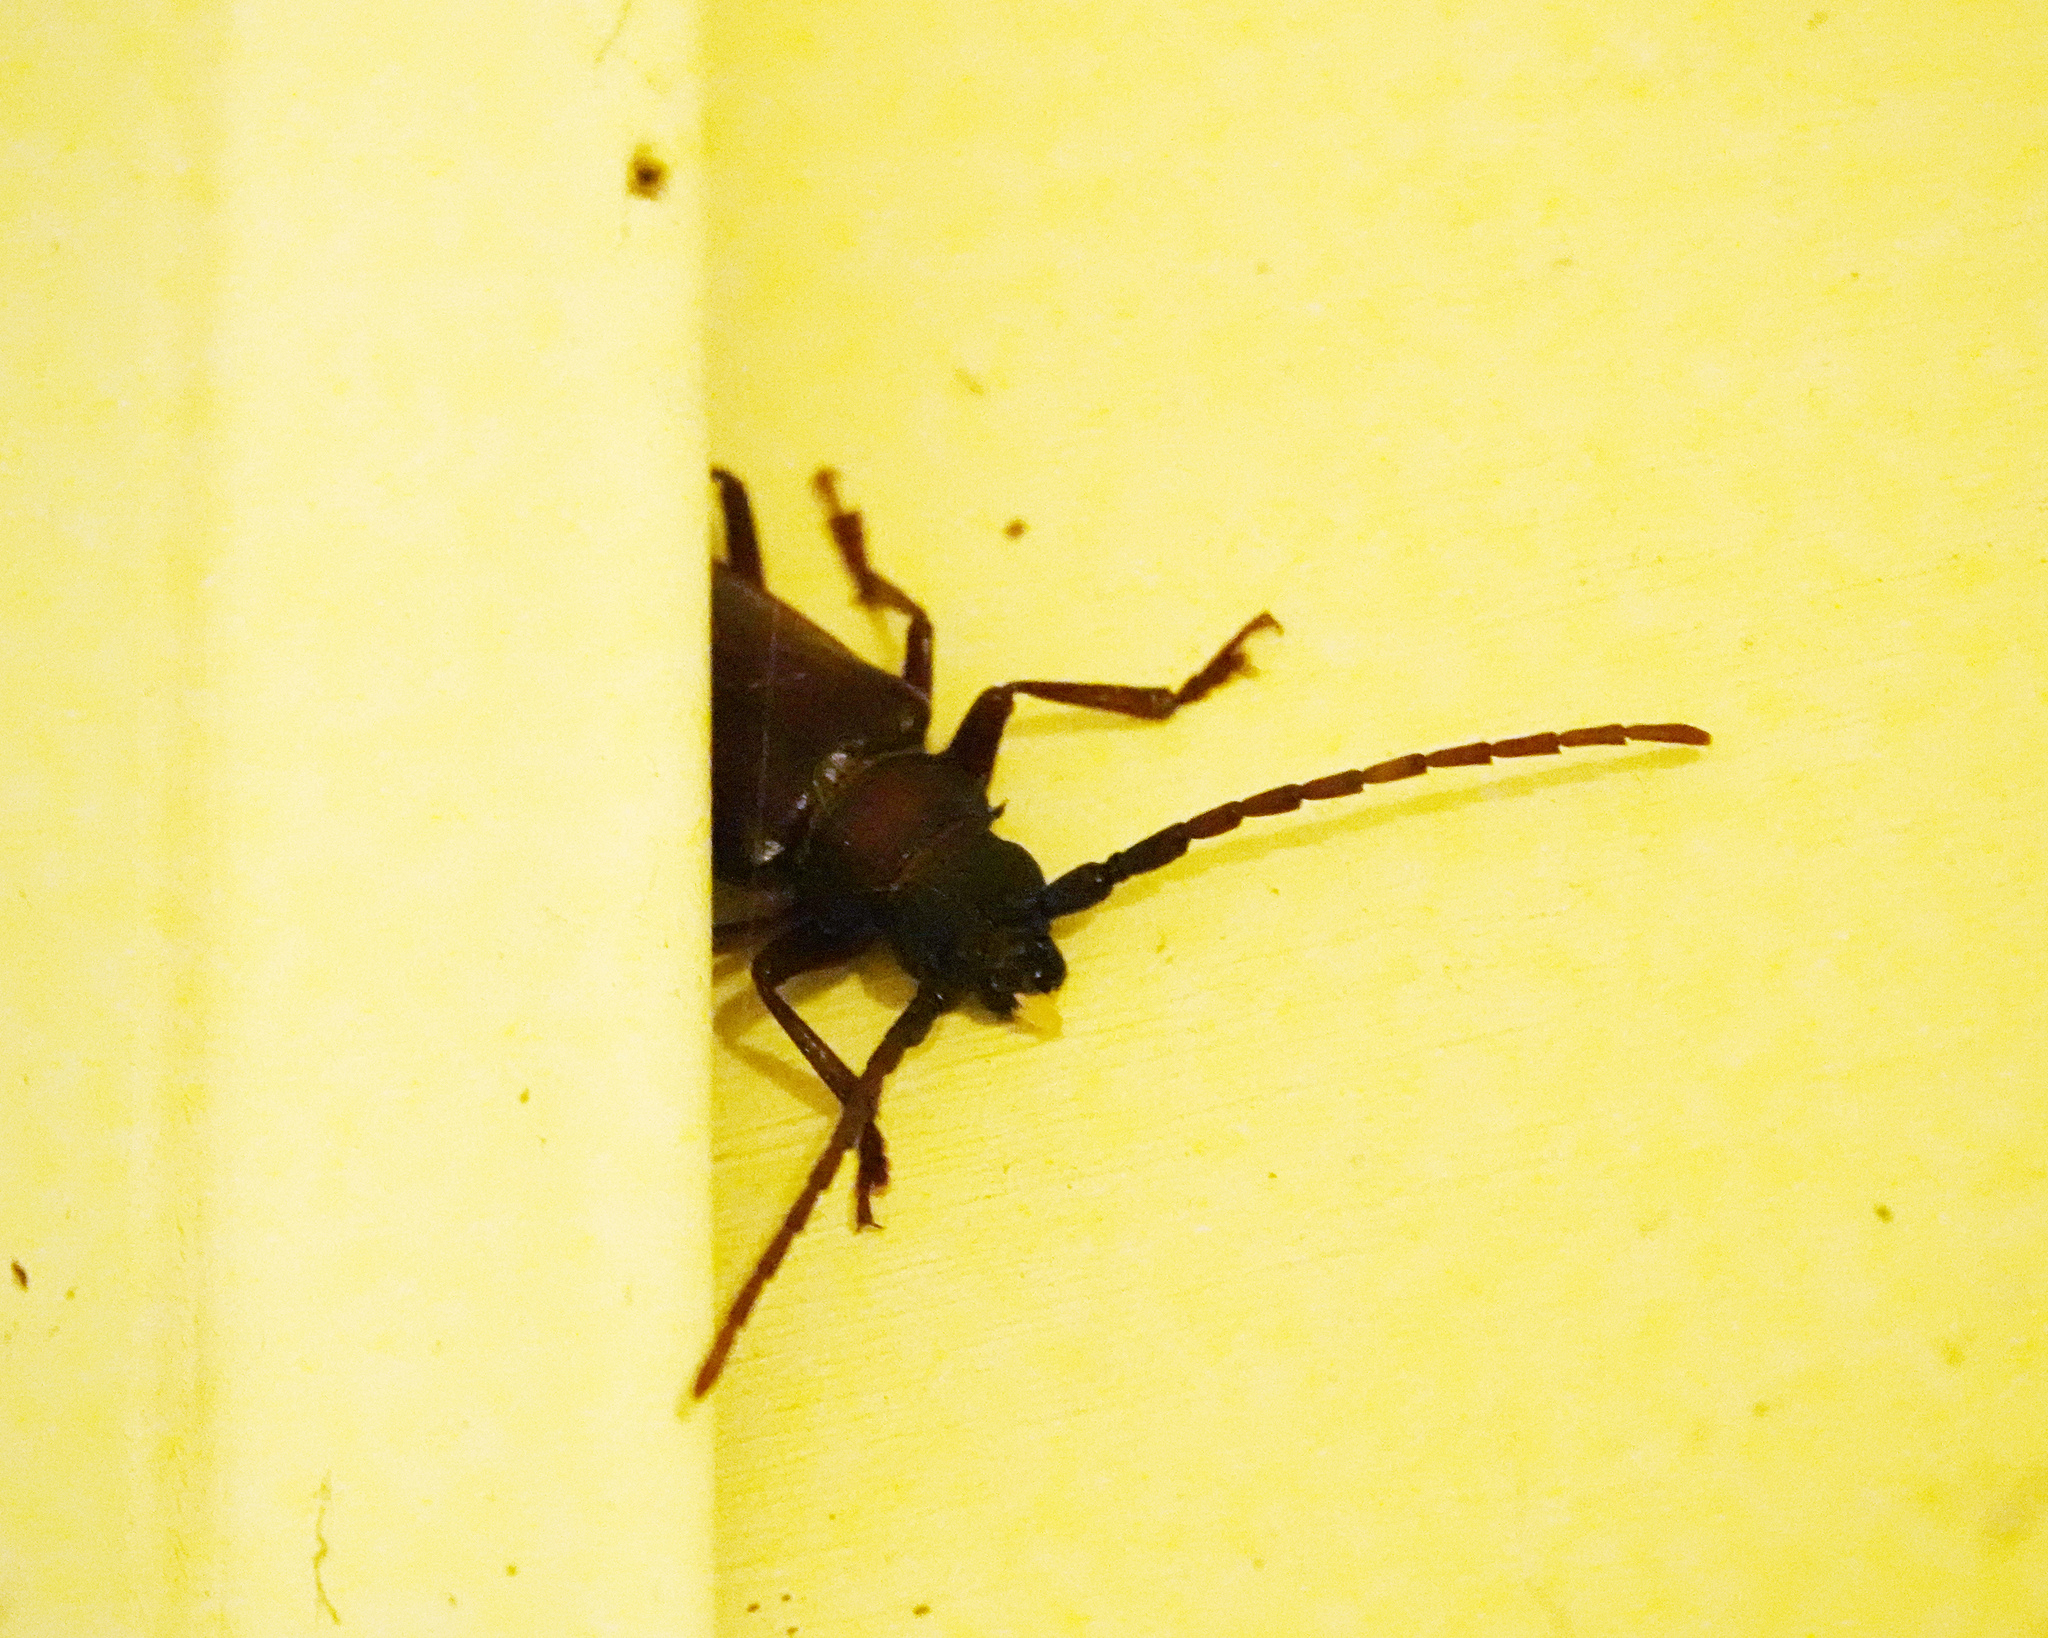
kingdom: Animalia
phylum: Arthropoda
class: Insecta
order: Coleoptera
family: Cerambycidae
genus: Orthosoma
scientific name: Orthosoma brunneum
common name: Brown prionid beetle
